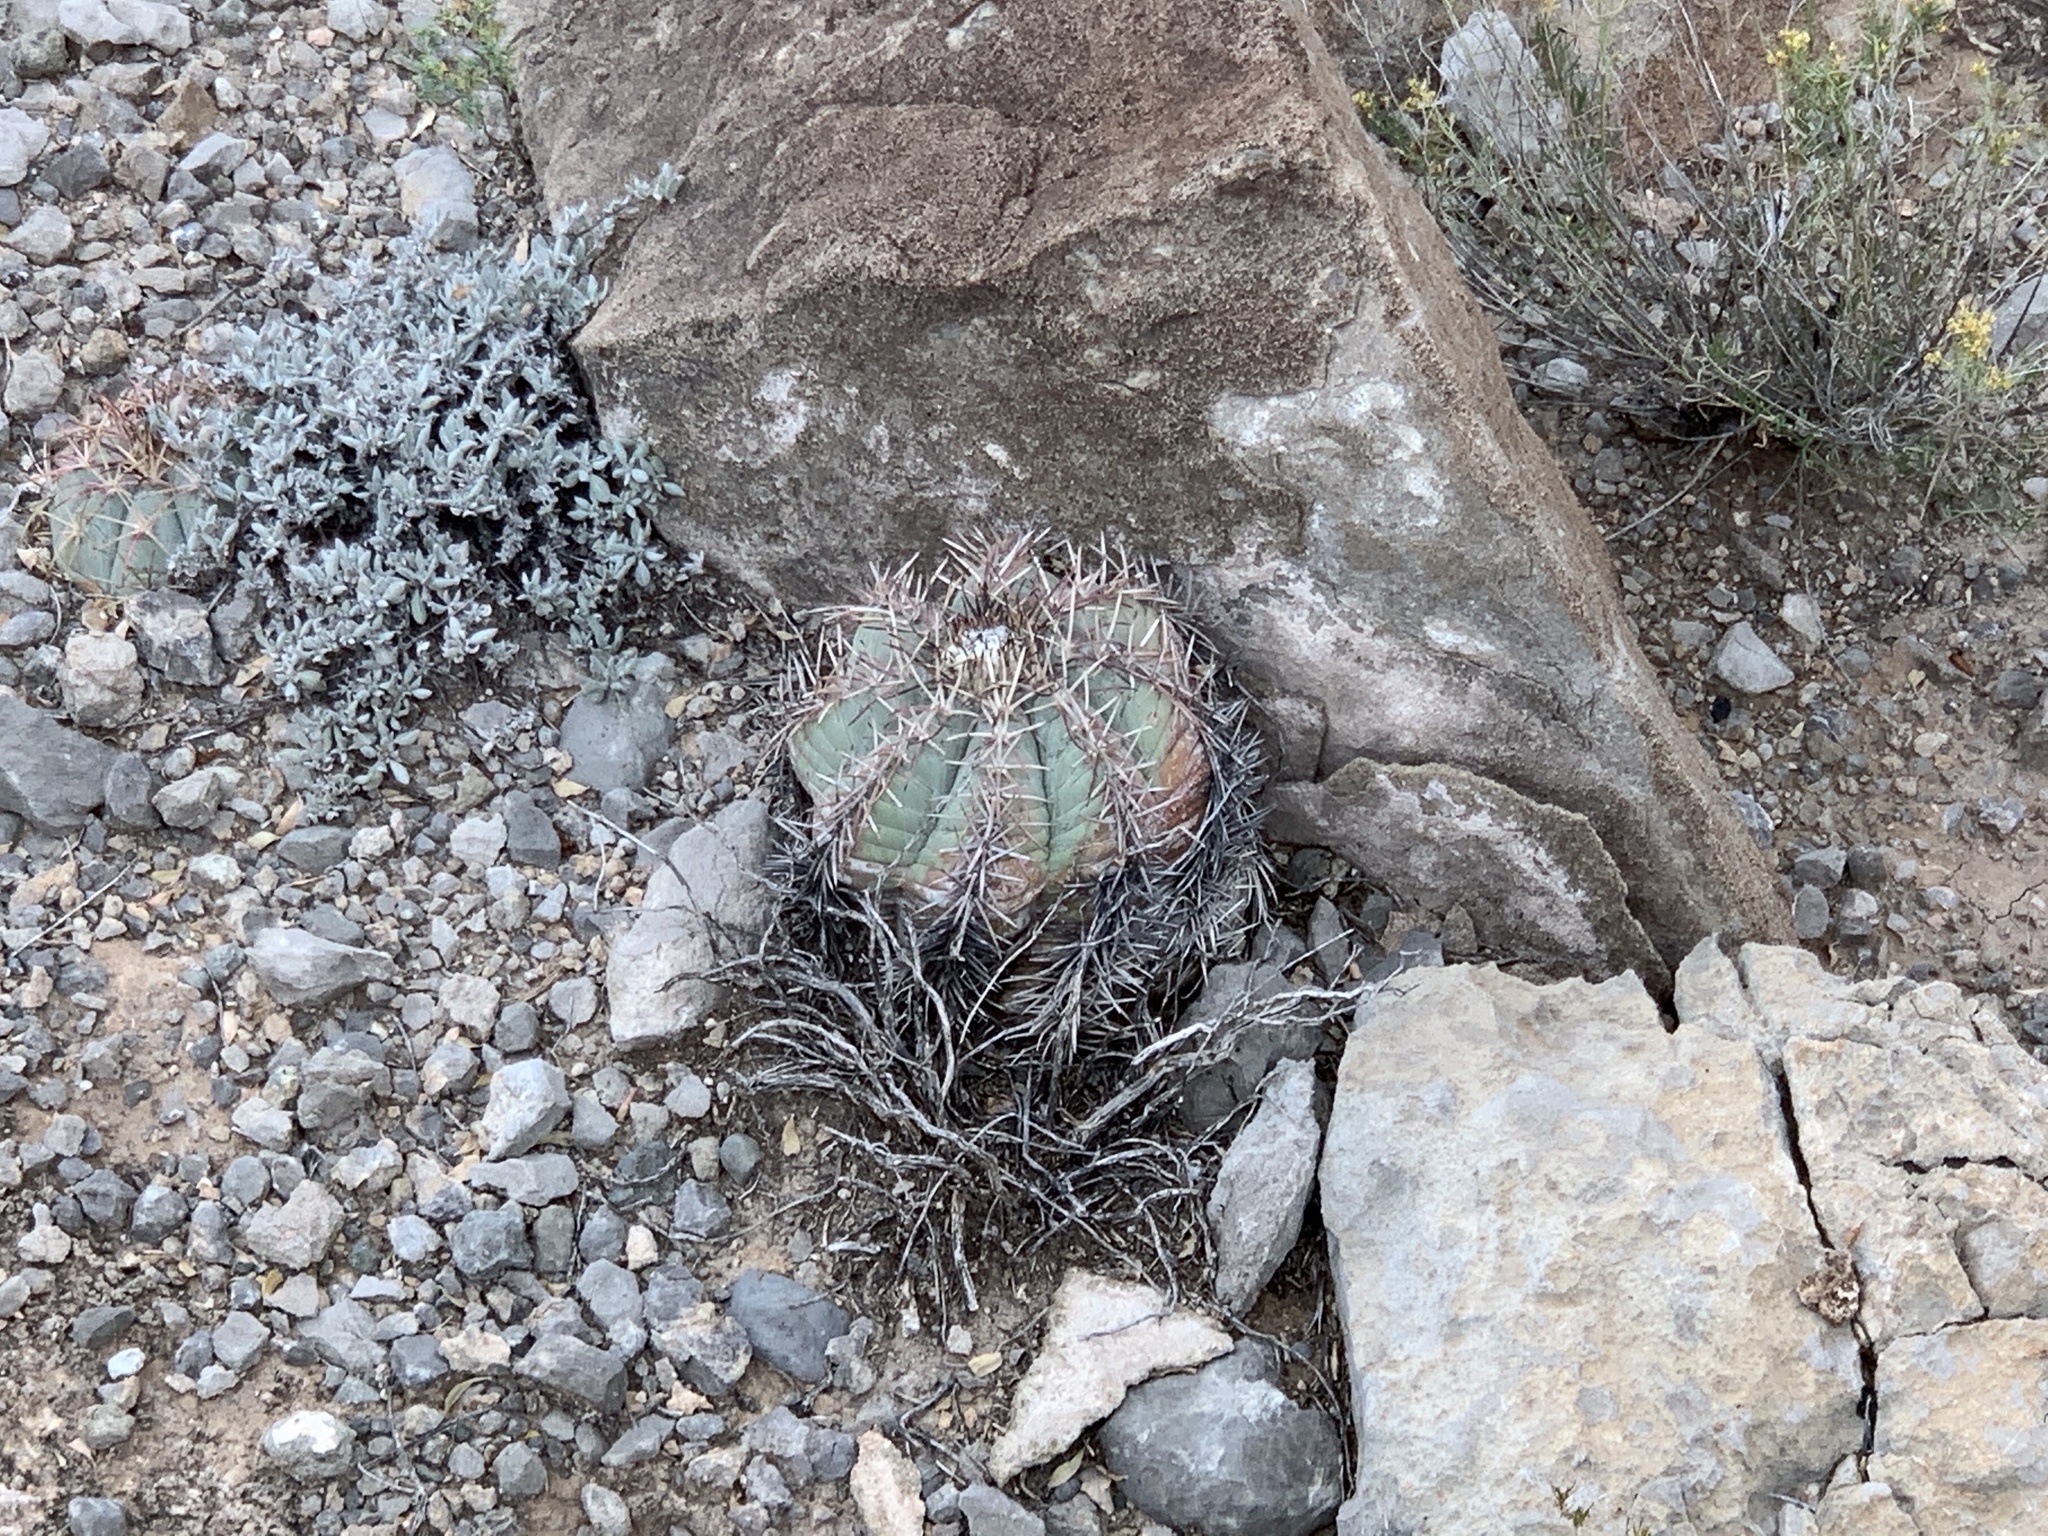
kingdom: Plantae
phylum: Tracheophyta
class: Magnoliopsida
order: Caryophyllales
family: Cactaceae
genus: Echinocactus
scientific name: Echinocactus horizonthalonius
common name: Devilshead
